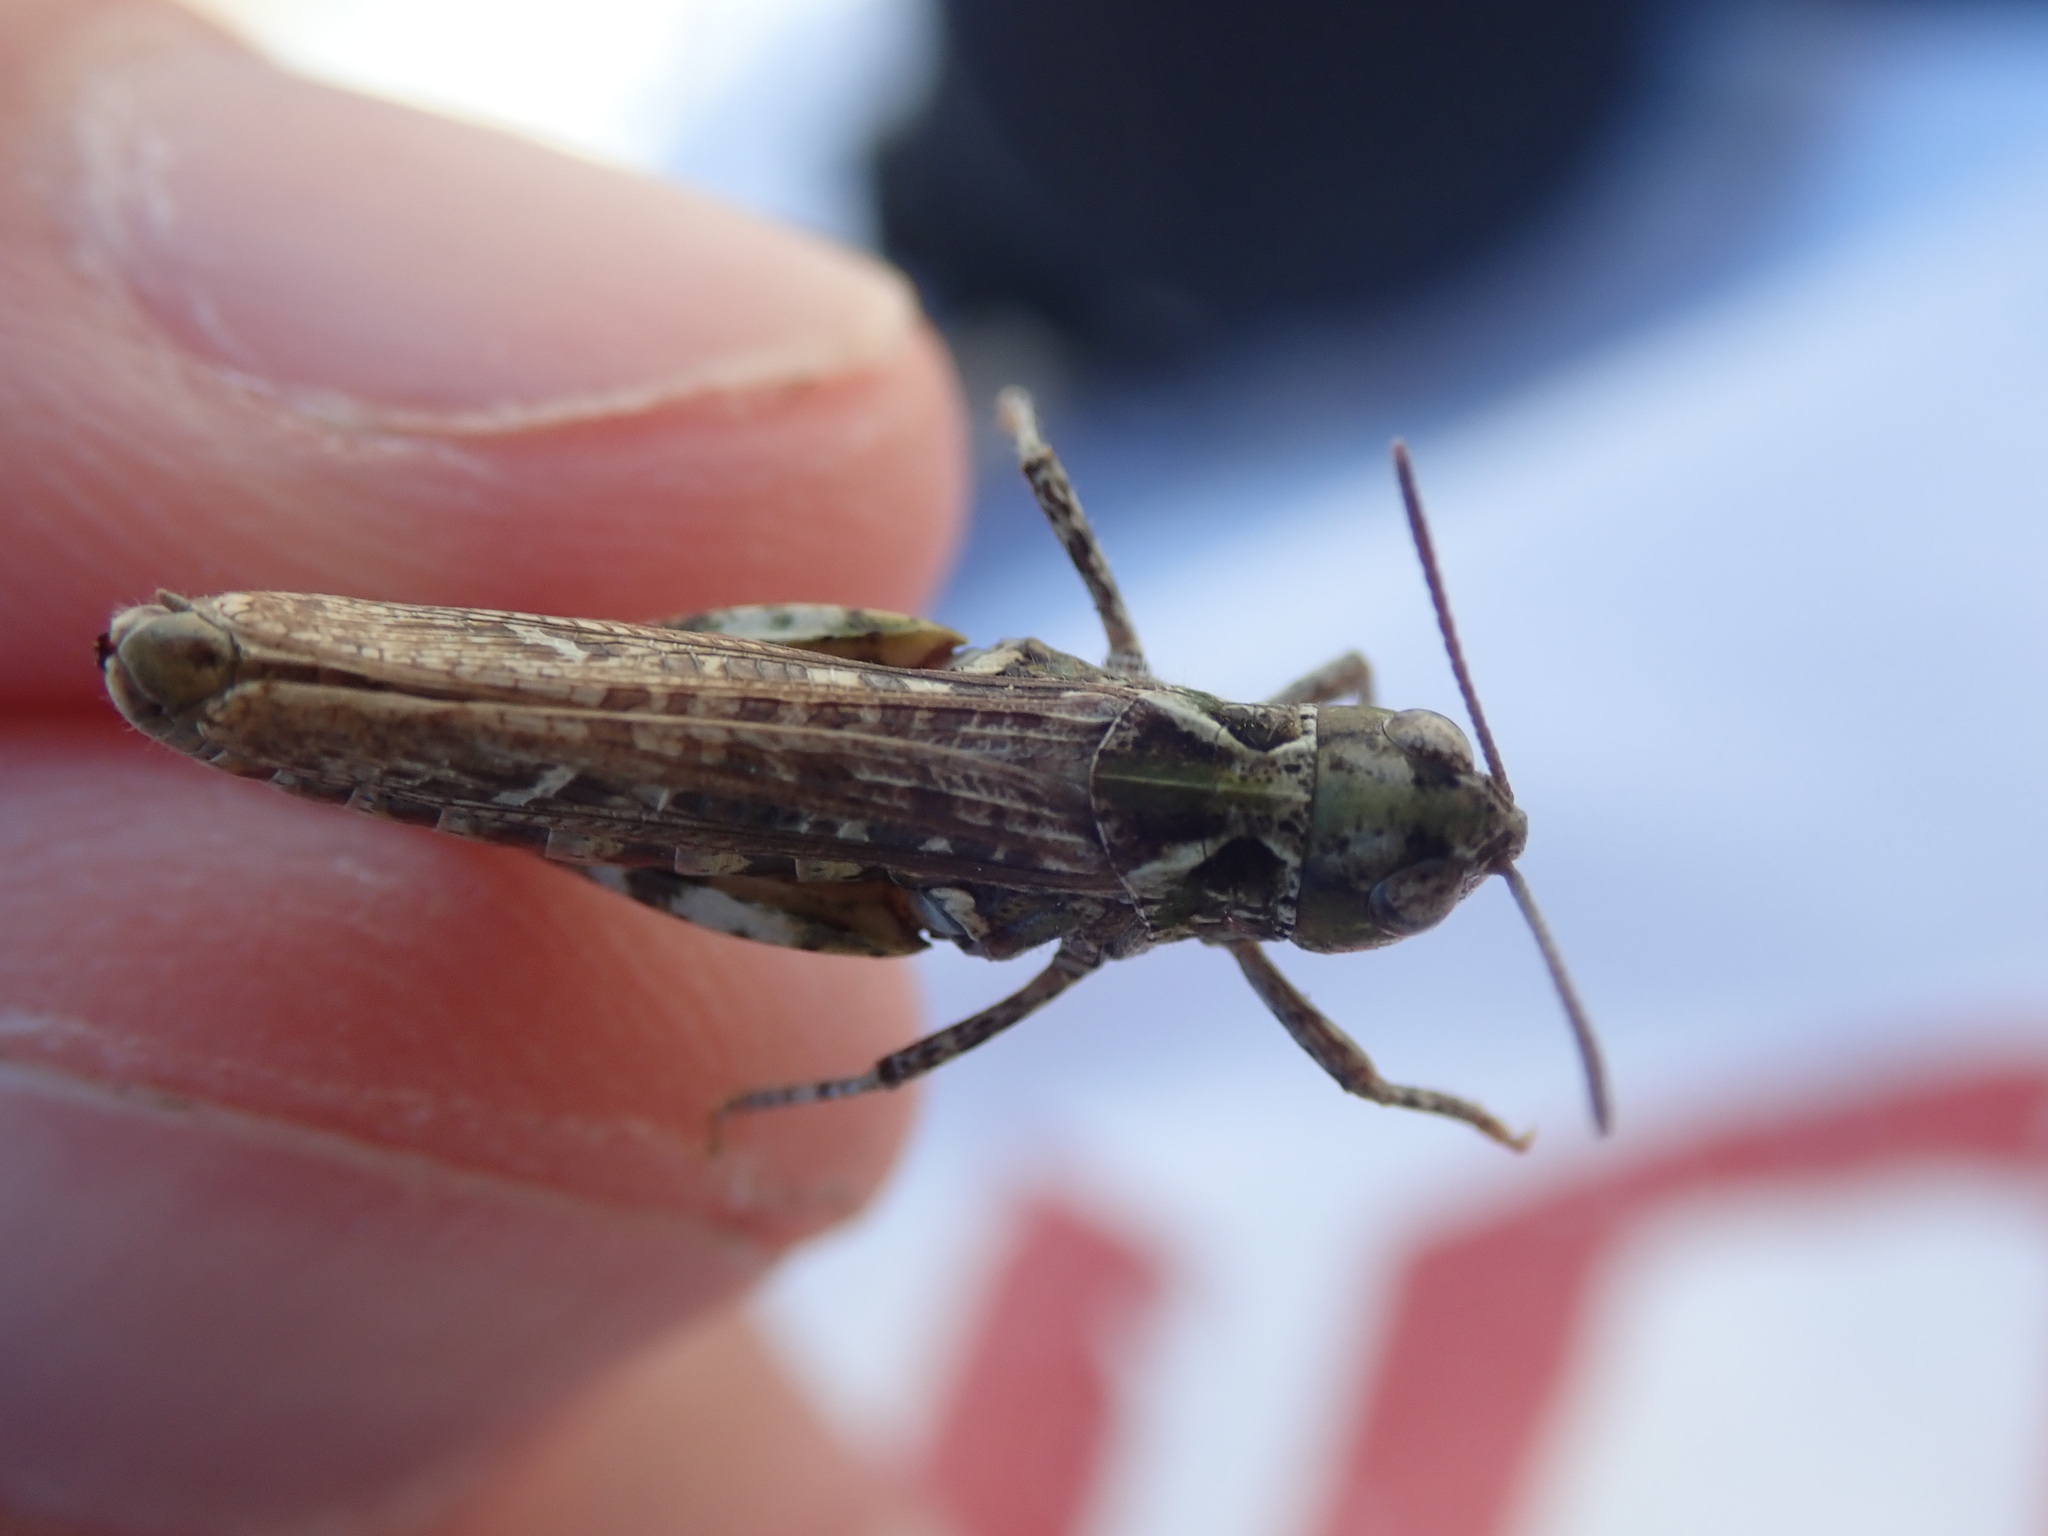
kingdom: Animalia
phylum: Arthropoda
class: Insecta
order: Orthoptera
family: Acrididae
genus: Myrmeleotettix
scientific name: Myrmeleotettix maculatus
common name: Mottled grasshopper
